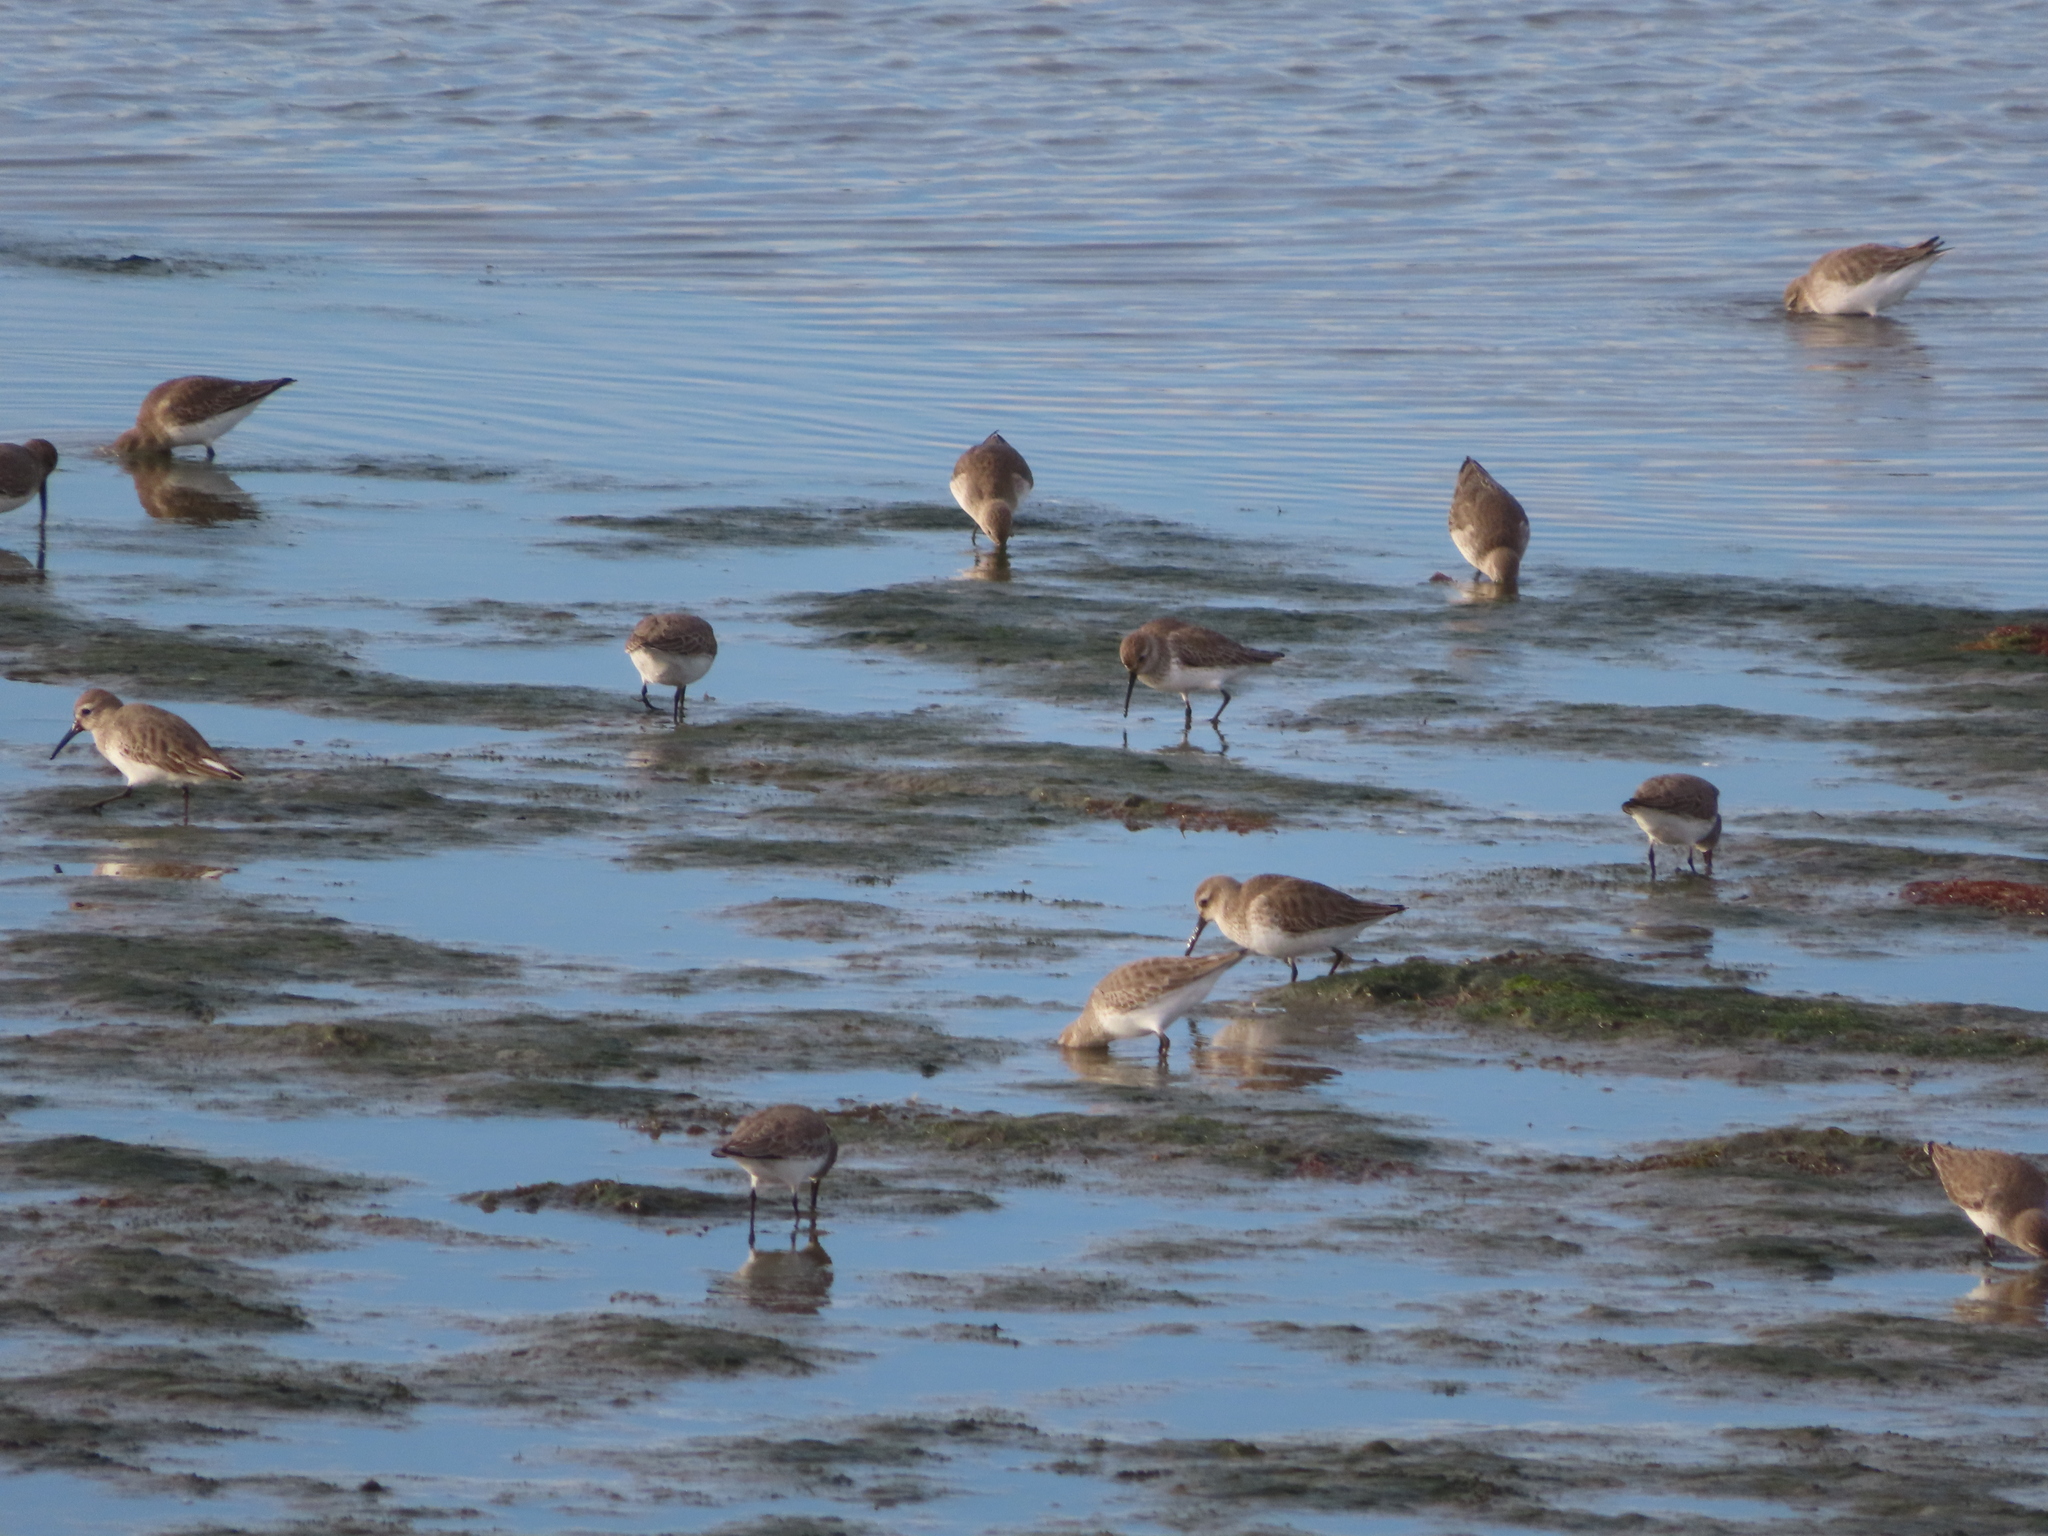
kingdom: Animalia
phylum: Chordata
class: Aves
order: Charadriiformes
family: Scolopacidae
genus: Calidris
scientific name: Calidris alpina
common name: Dunlin
